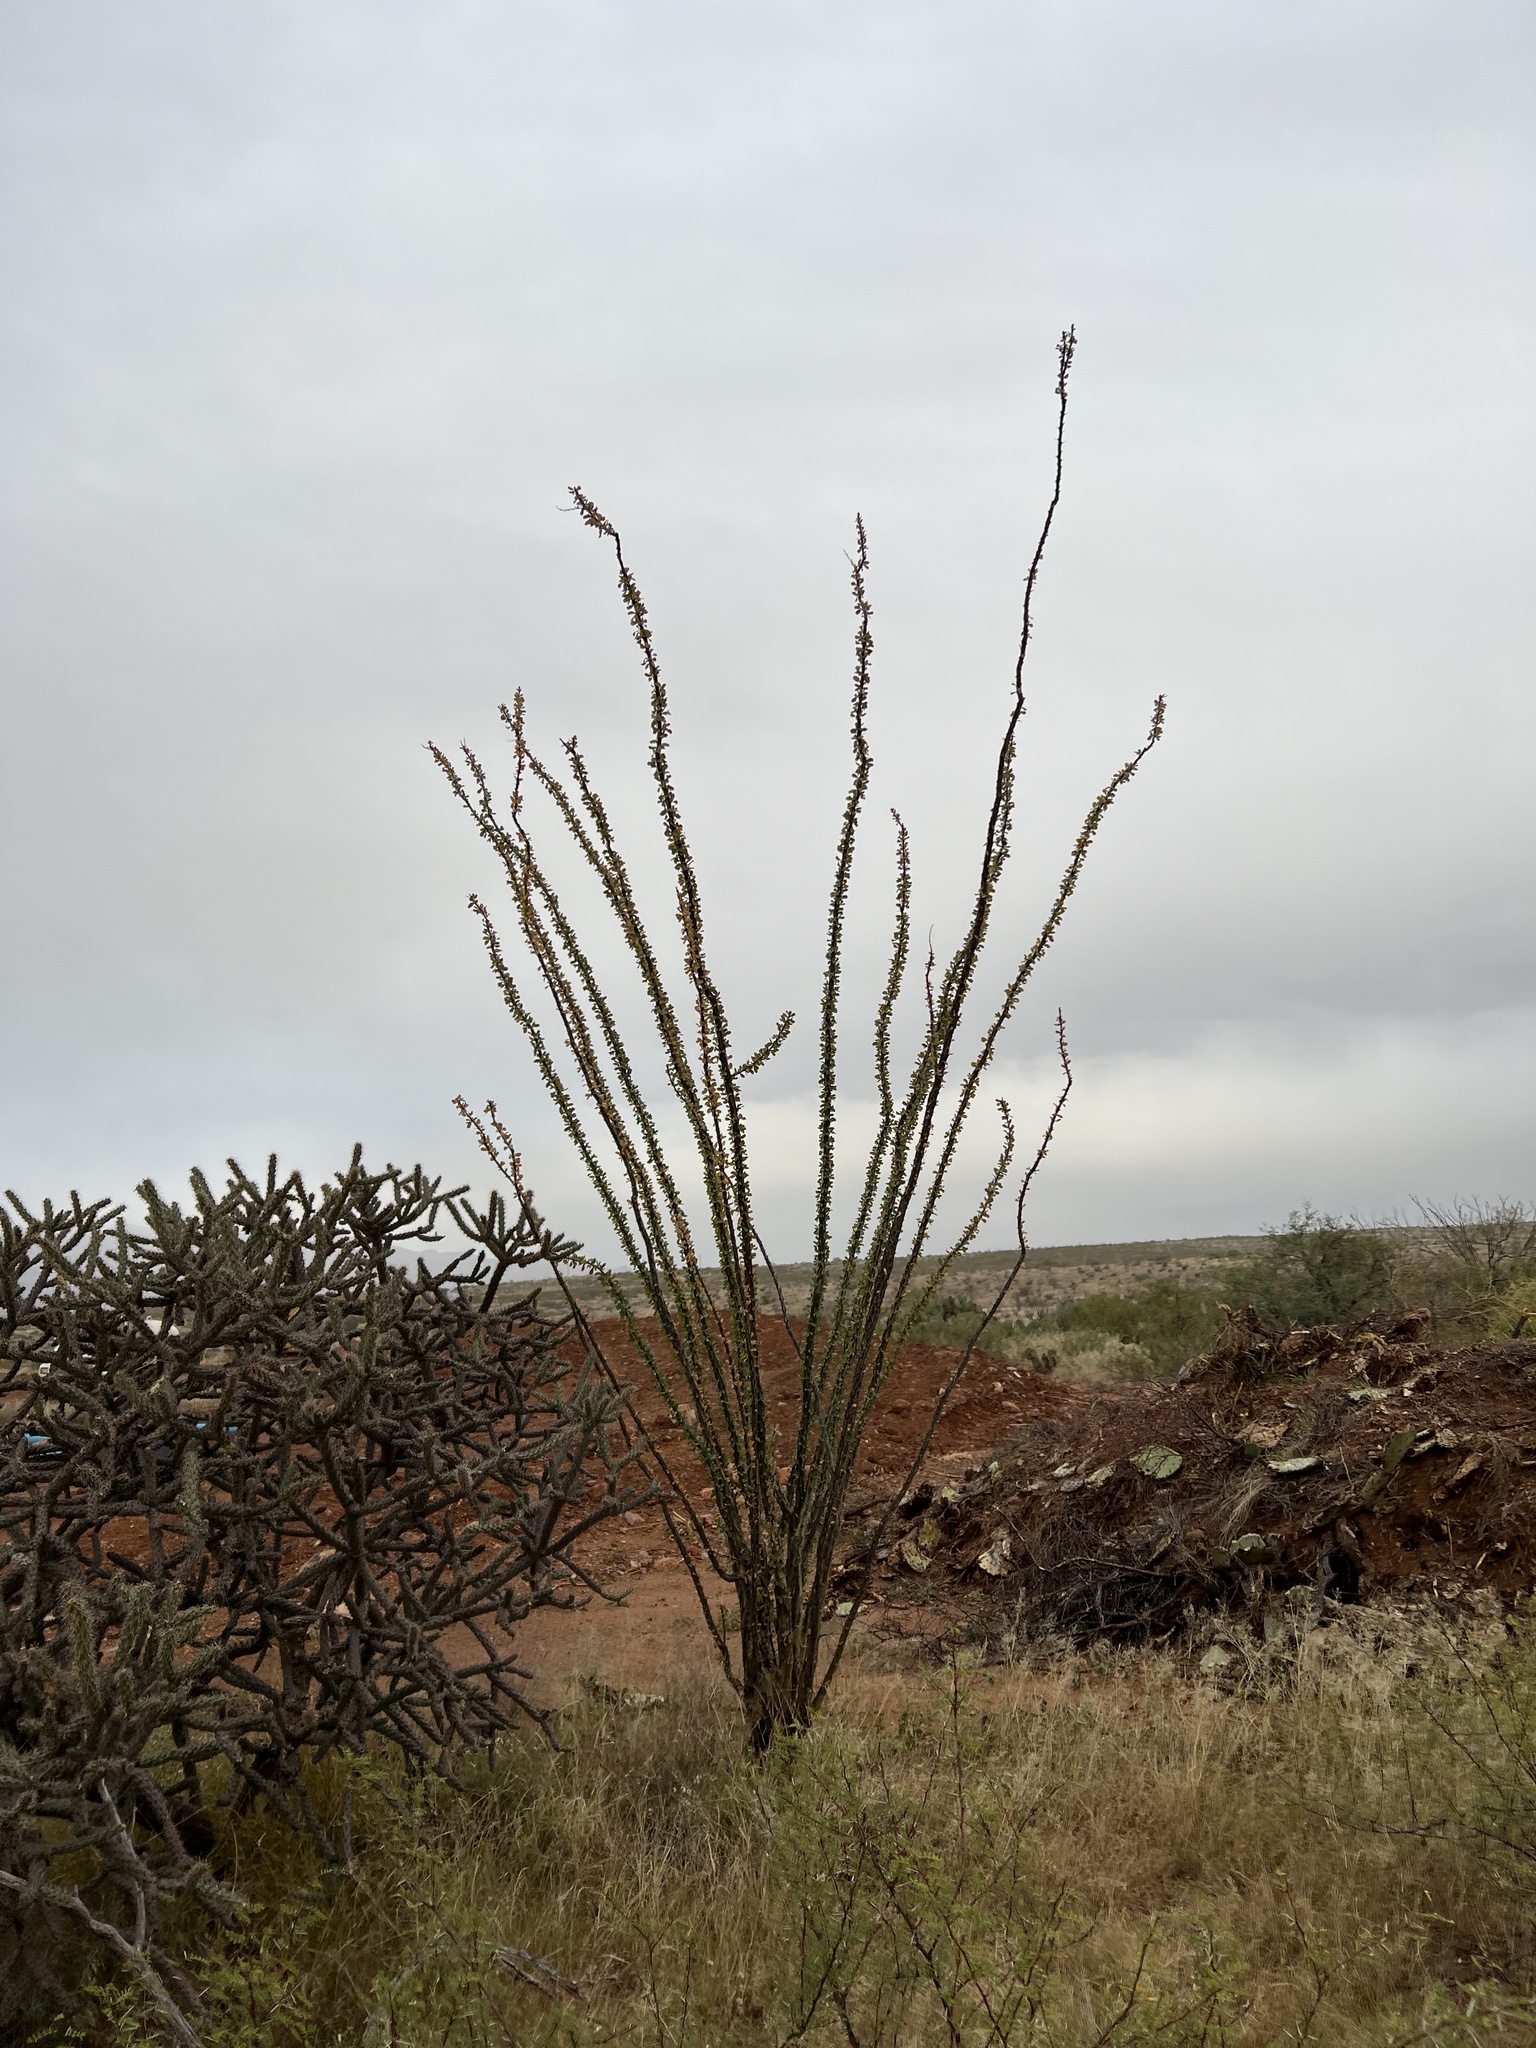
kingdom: Plantae
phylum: Tracheophyta
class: Magnoliopsida
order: Ericales
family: Fouquieriaceae
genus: Fouquieria
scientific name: Fouquieria splendens
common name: Vine-cactus
